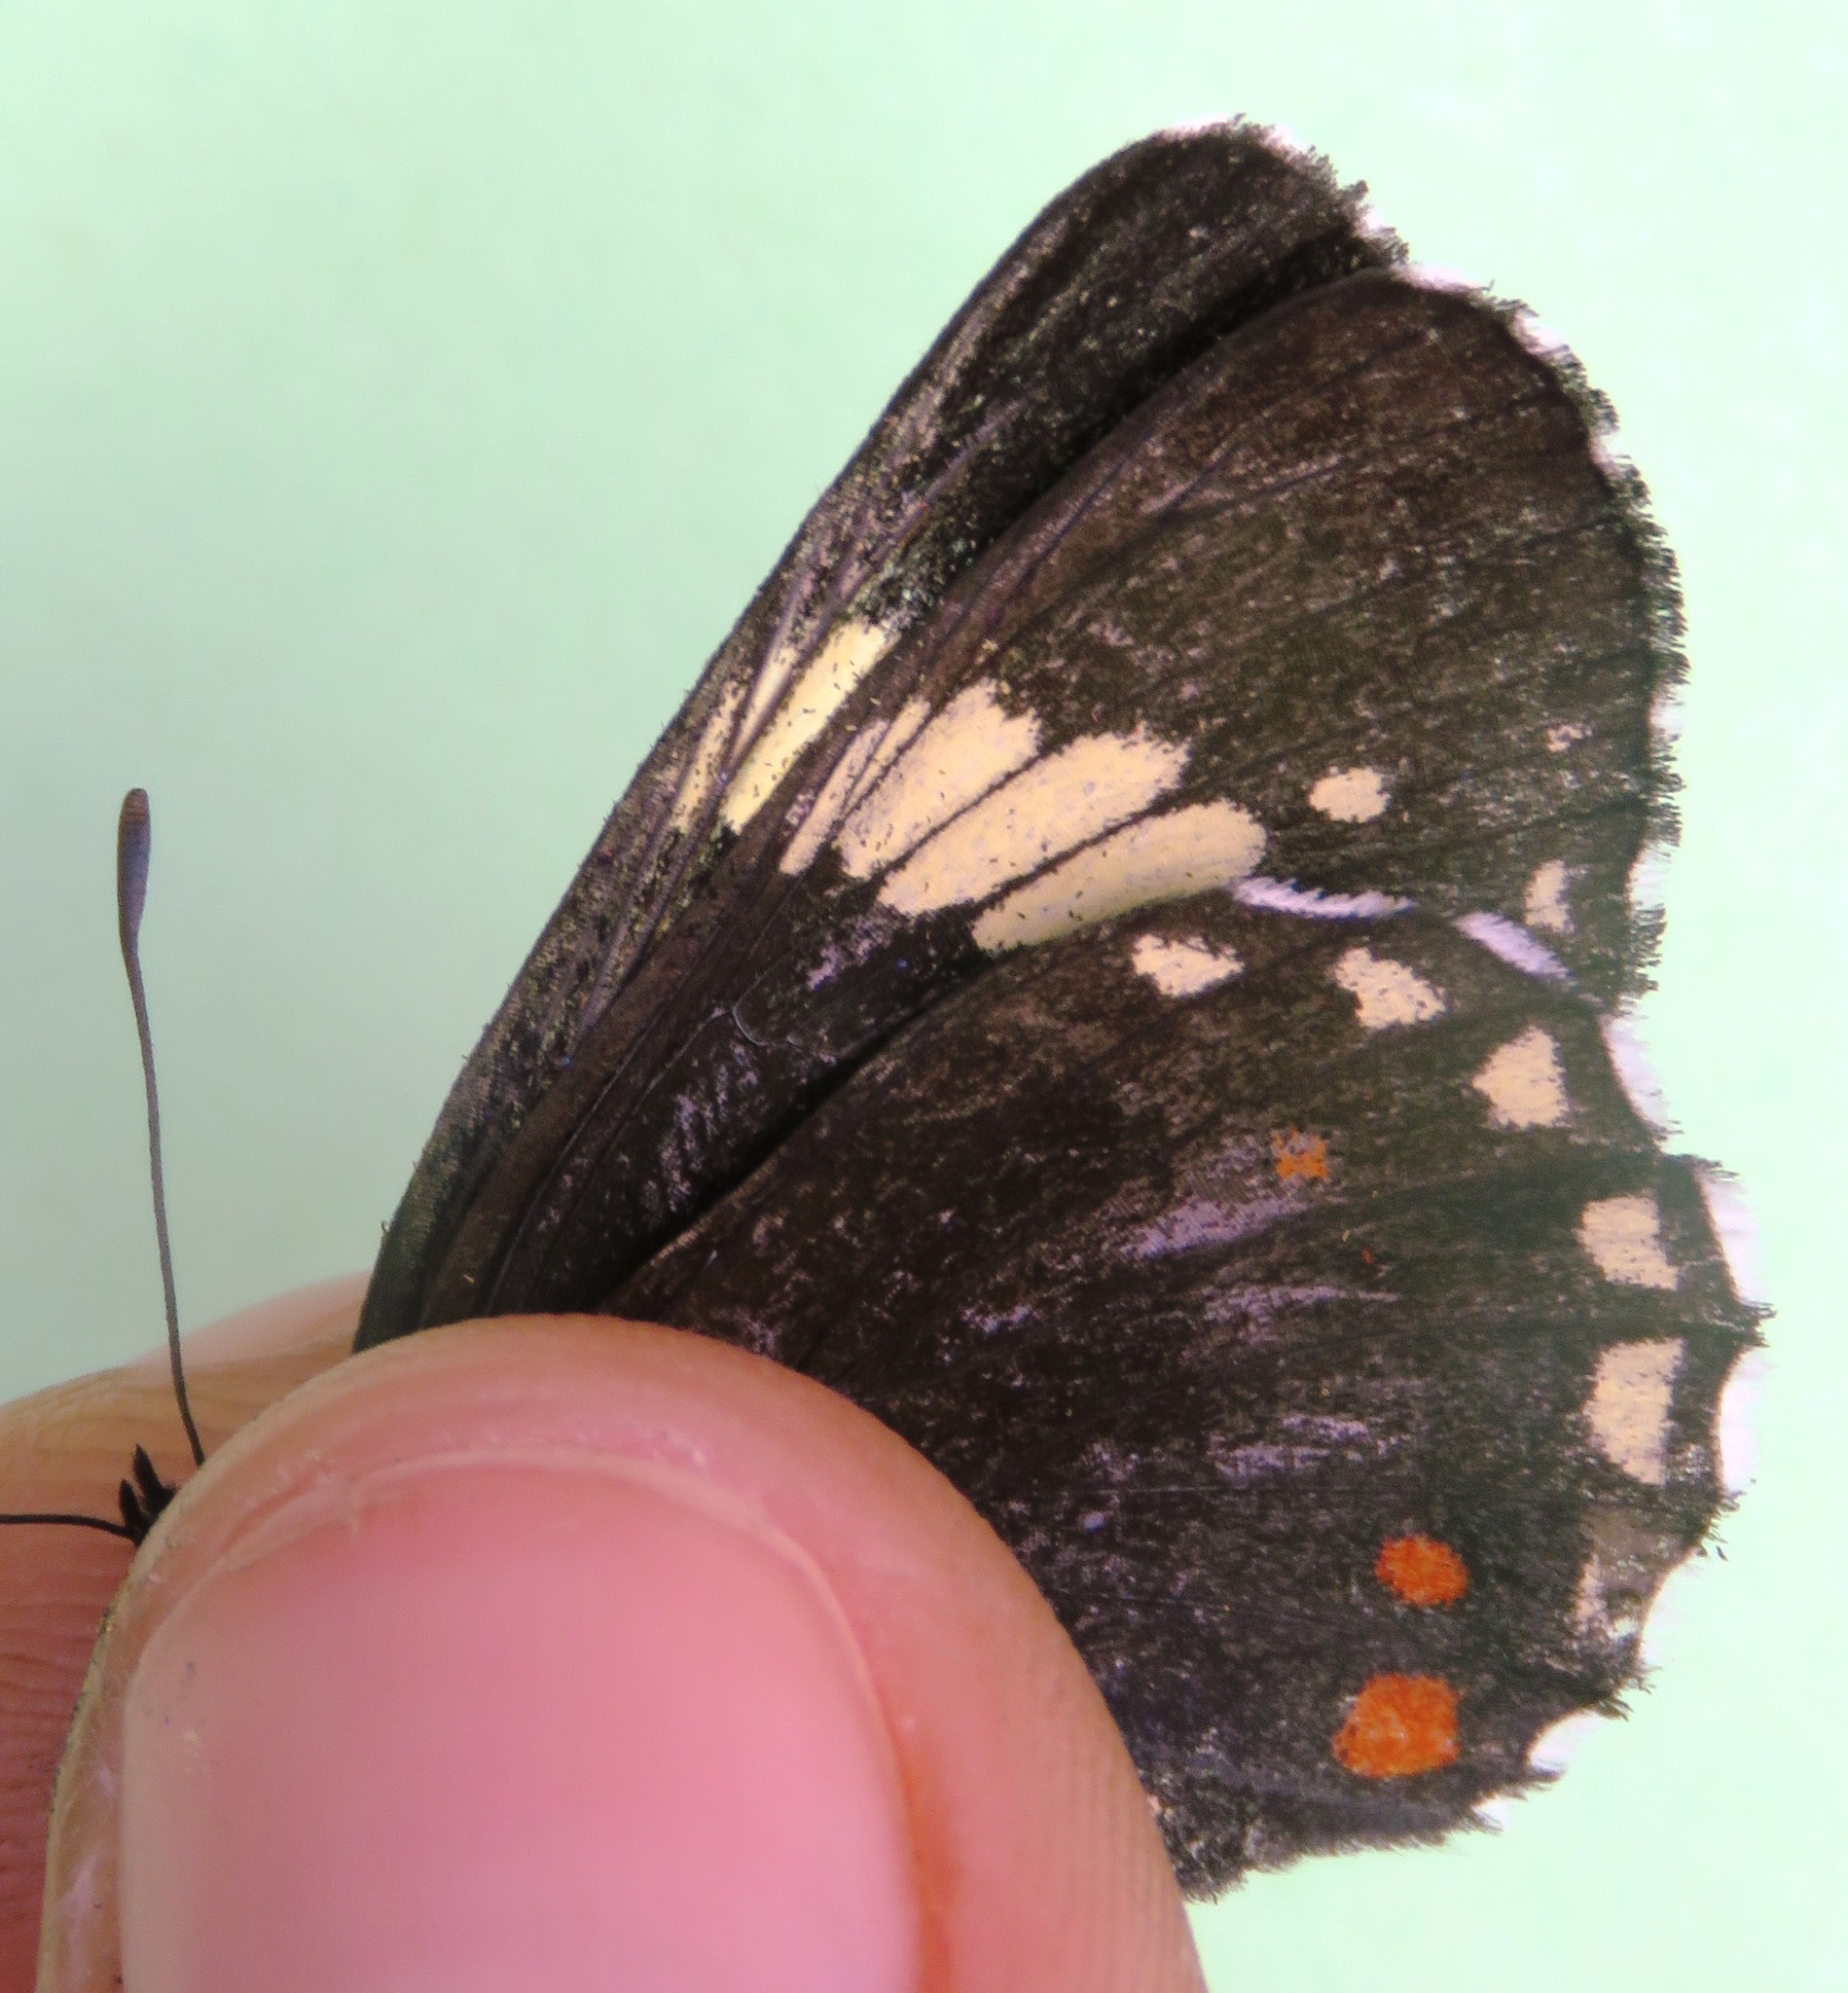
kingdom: Animalia
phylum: Arthropoda
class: Insecta
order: Lepidoptera
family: Nymphalidae
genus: Chlosyne
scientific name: Chlosyne melanarge
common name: Cream-banded checkerspot
